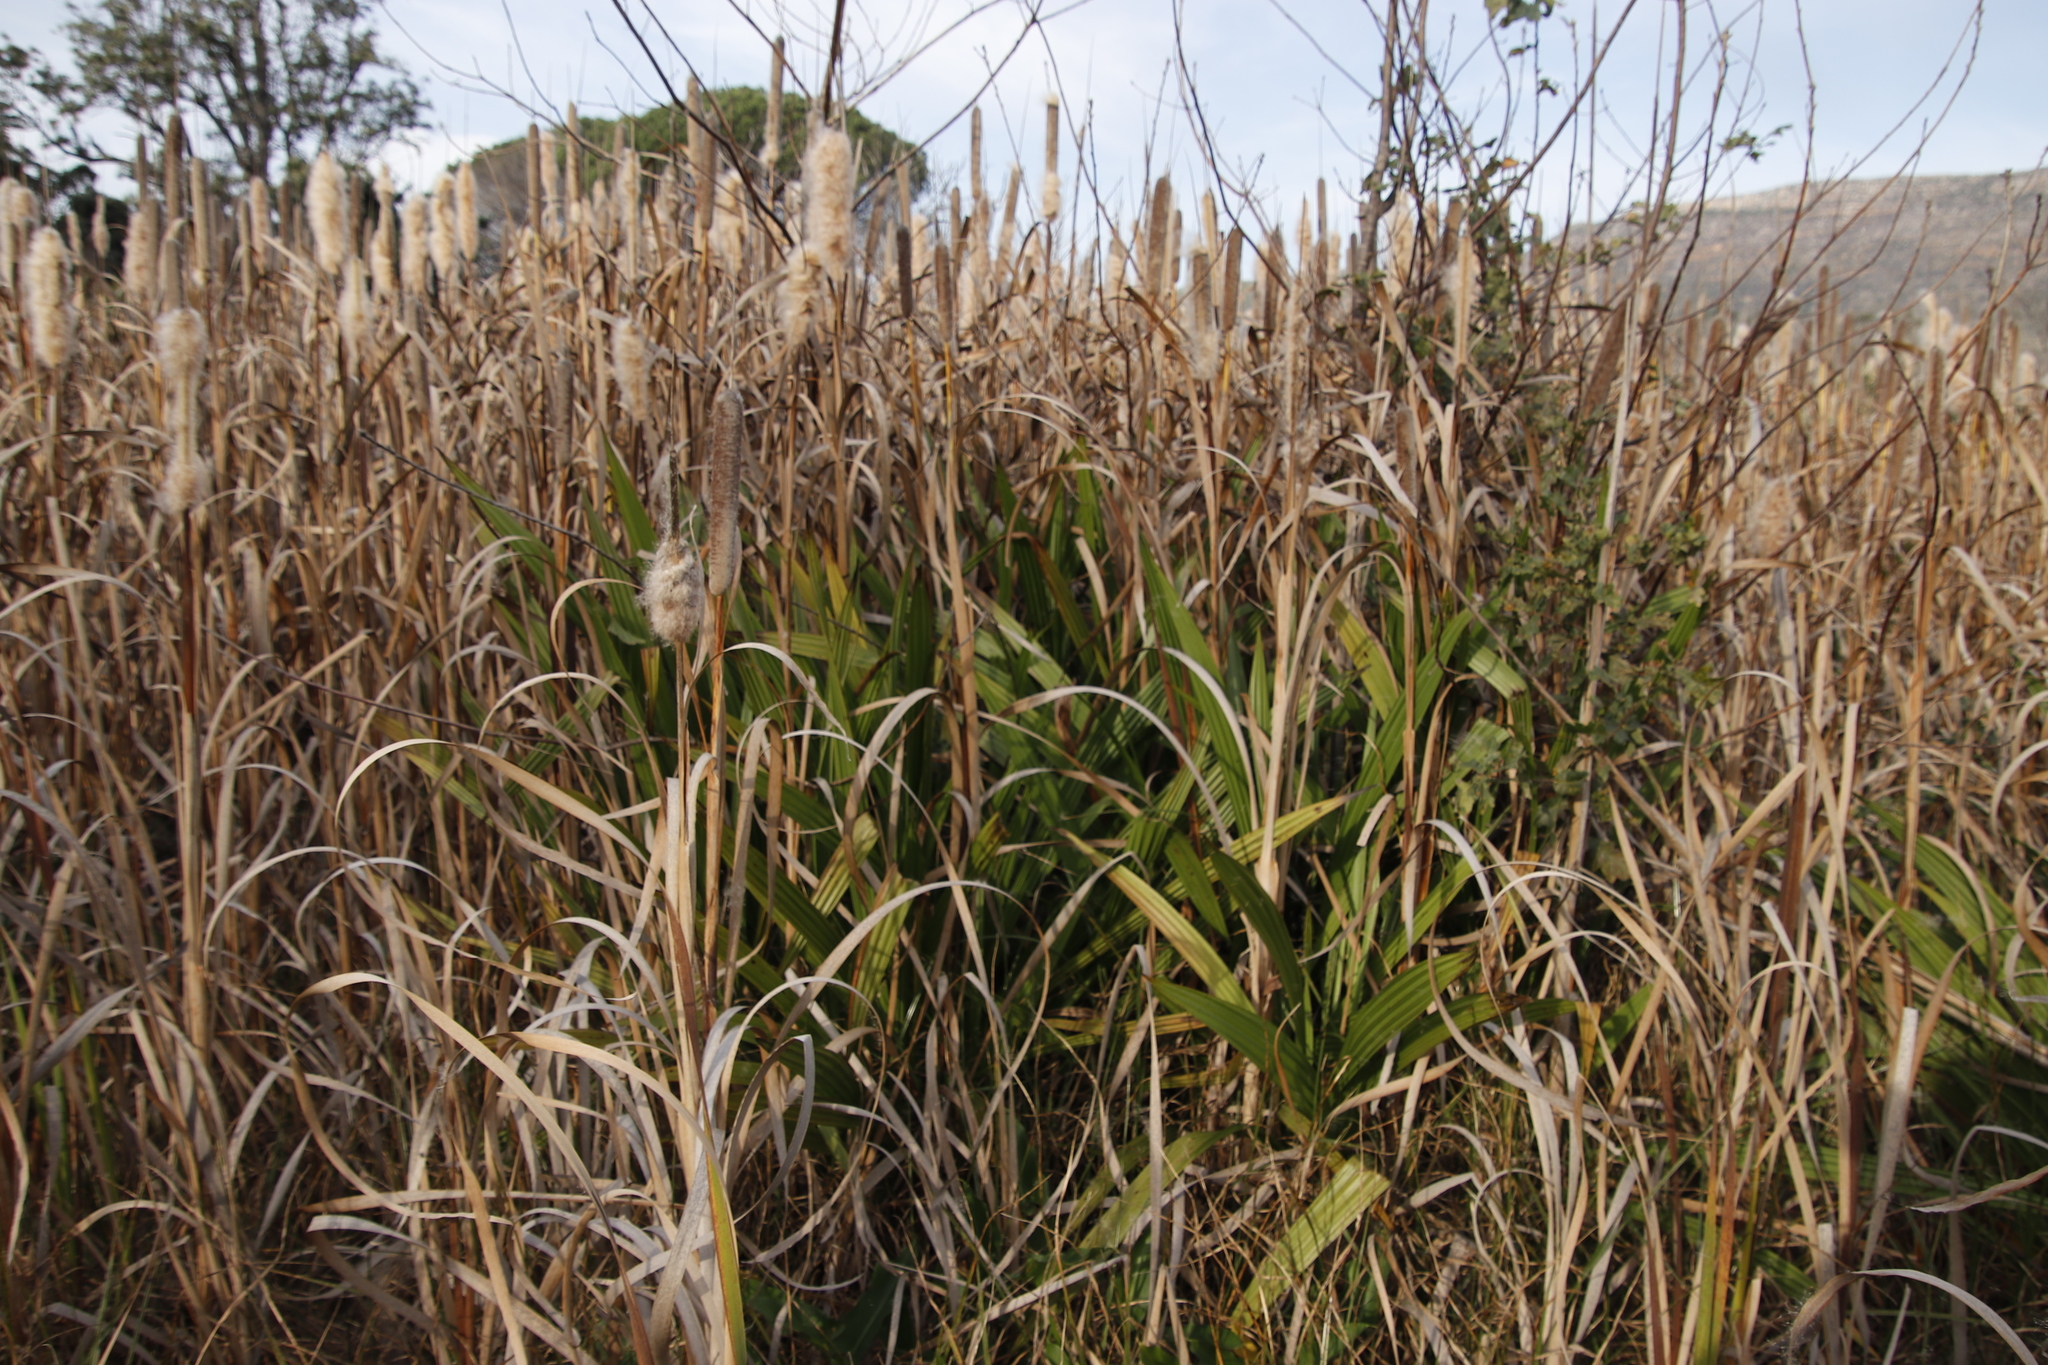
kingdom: Plantae
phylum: Tracheophyta
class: Liliopsida
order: Commelinales
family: Haemodoraceae
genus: Wachendorfia
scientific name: Wachendorfia thyrsiflora
